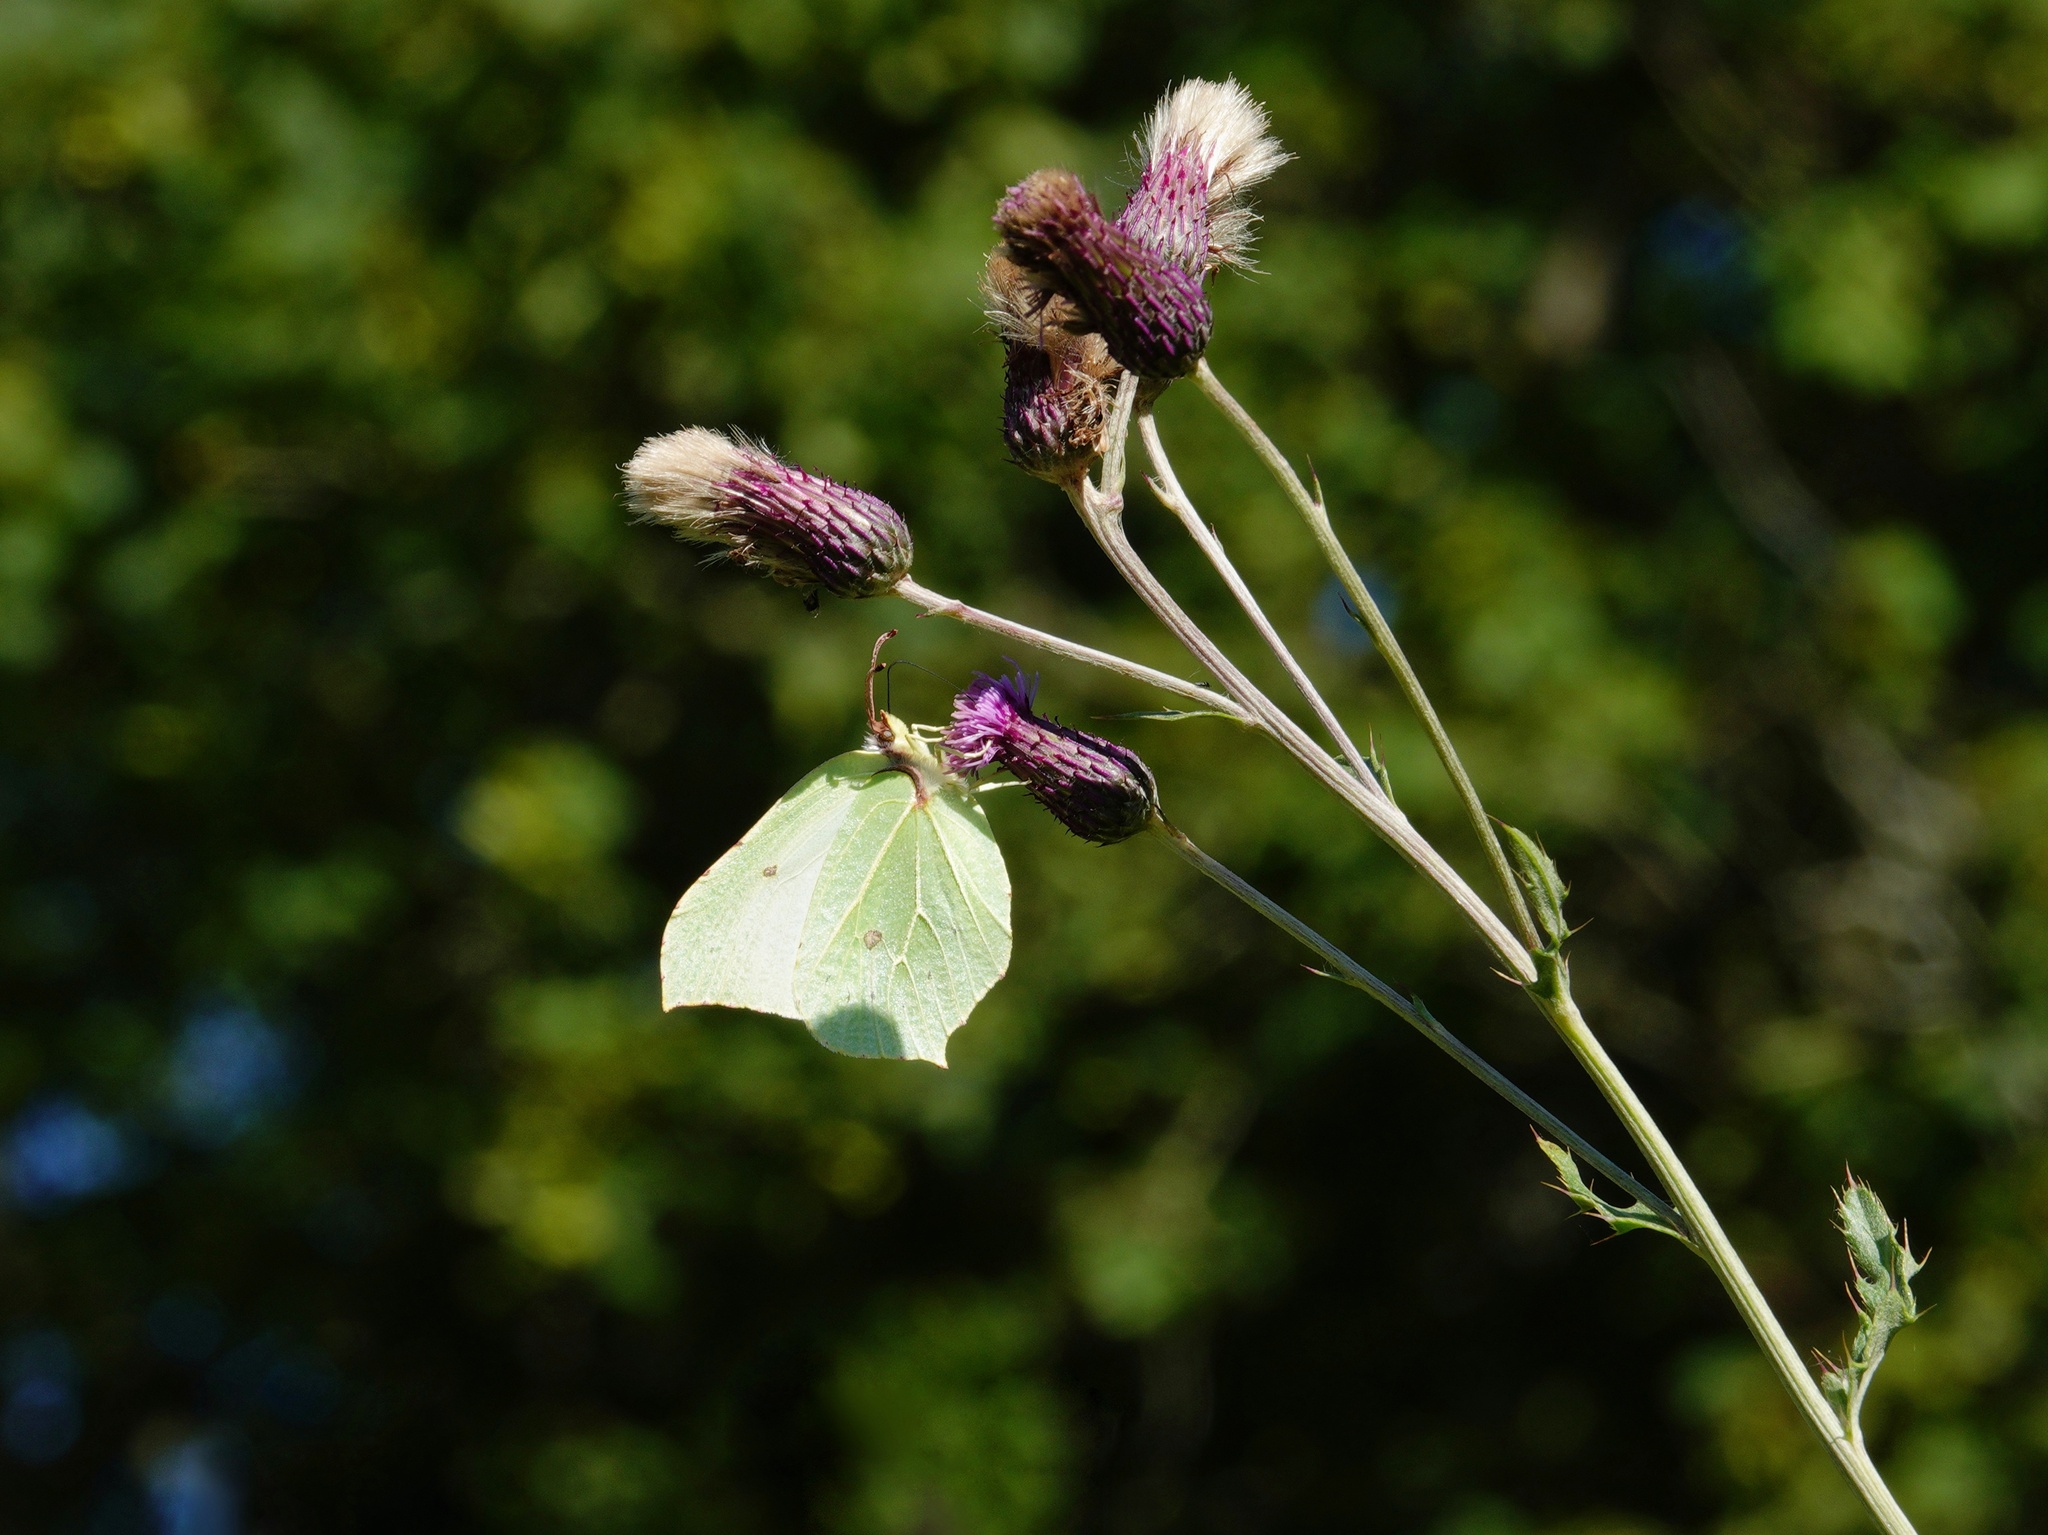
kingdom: Animalia
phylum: Arthropoda
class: Insecta
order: Lepidoptera
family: Pieridae
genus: Gonepteryx
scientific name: Gonepteryx rhamni
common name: Brimstone
